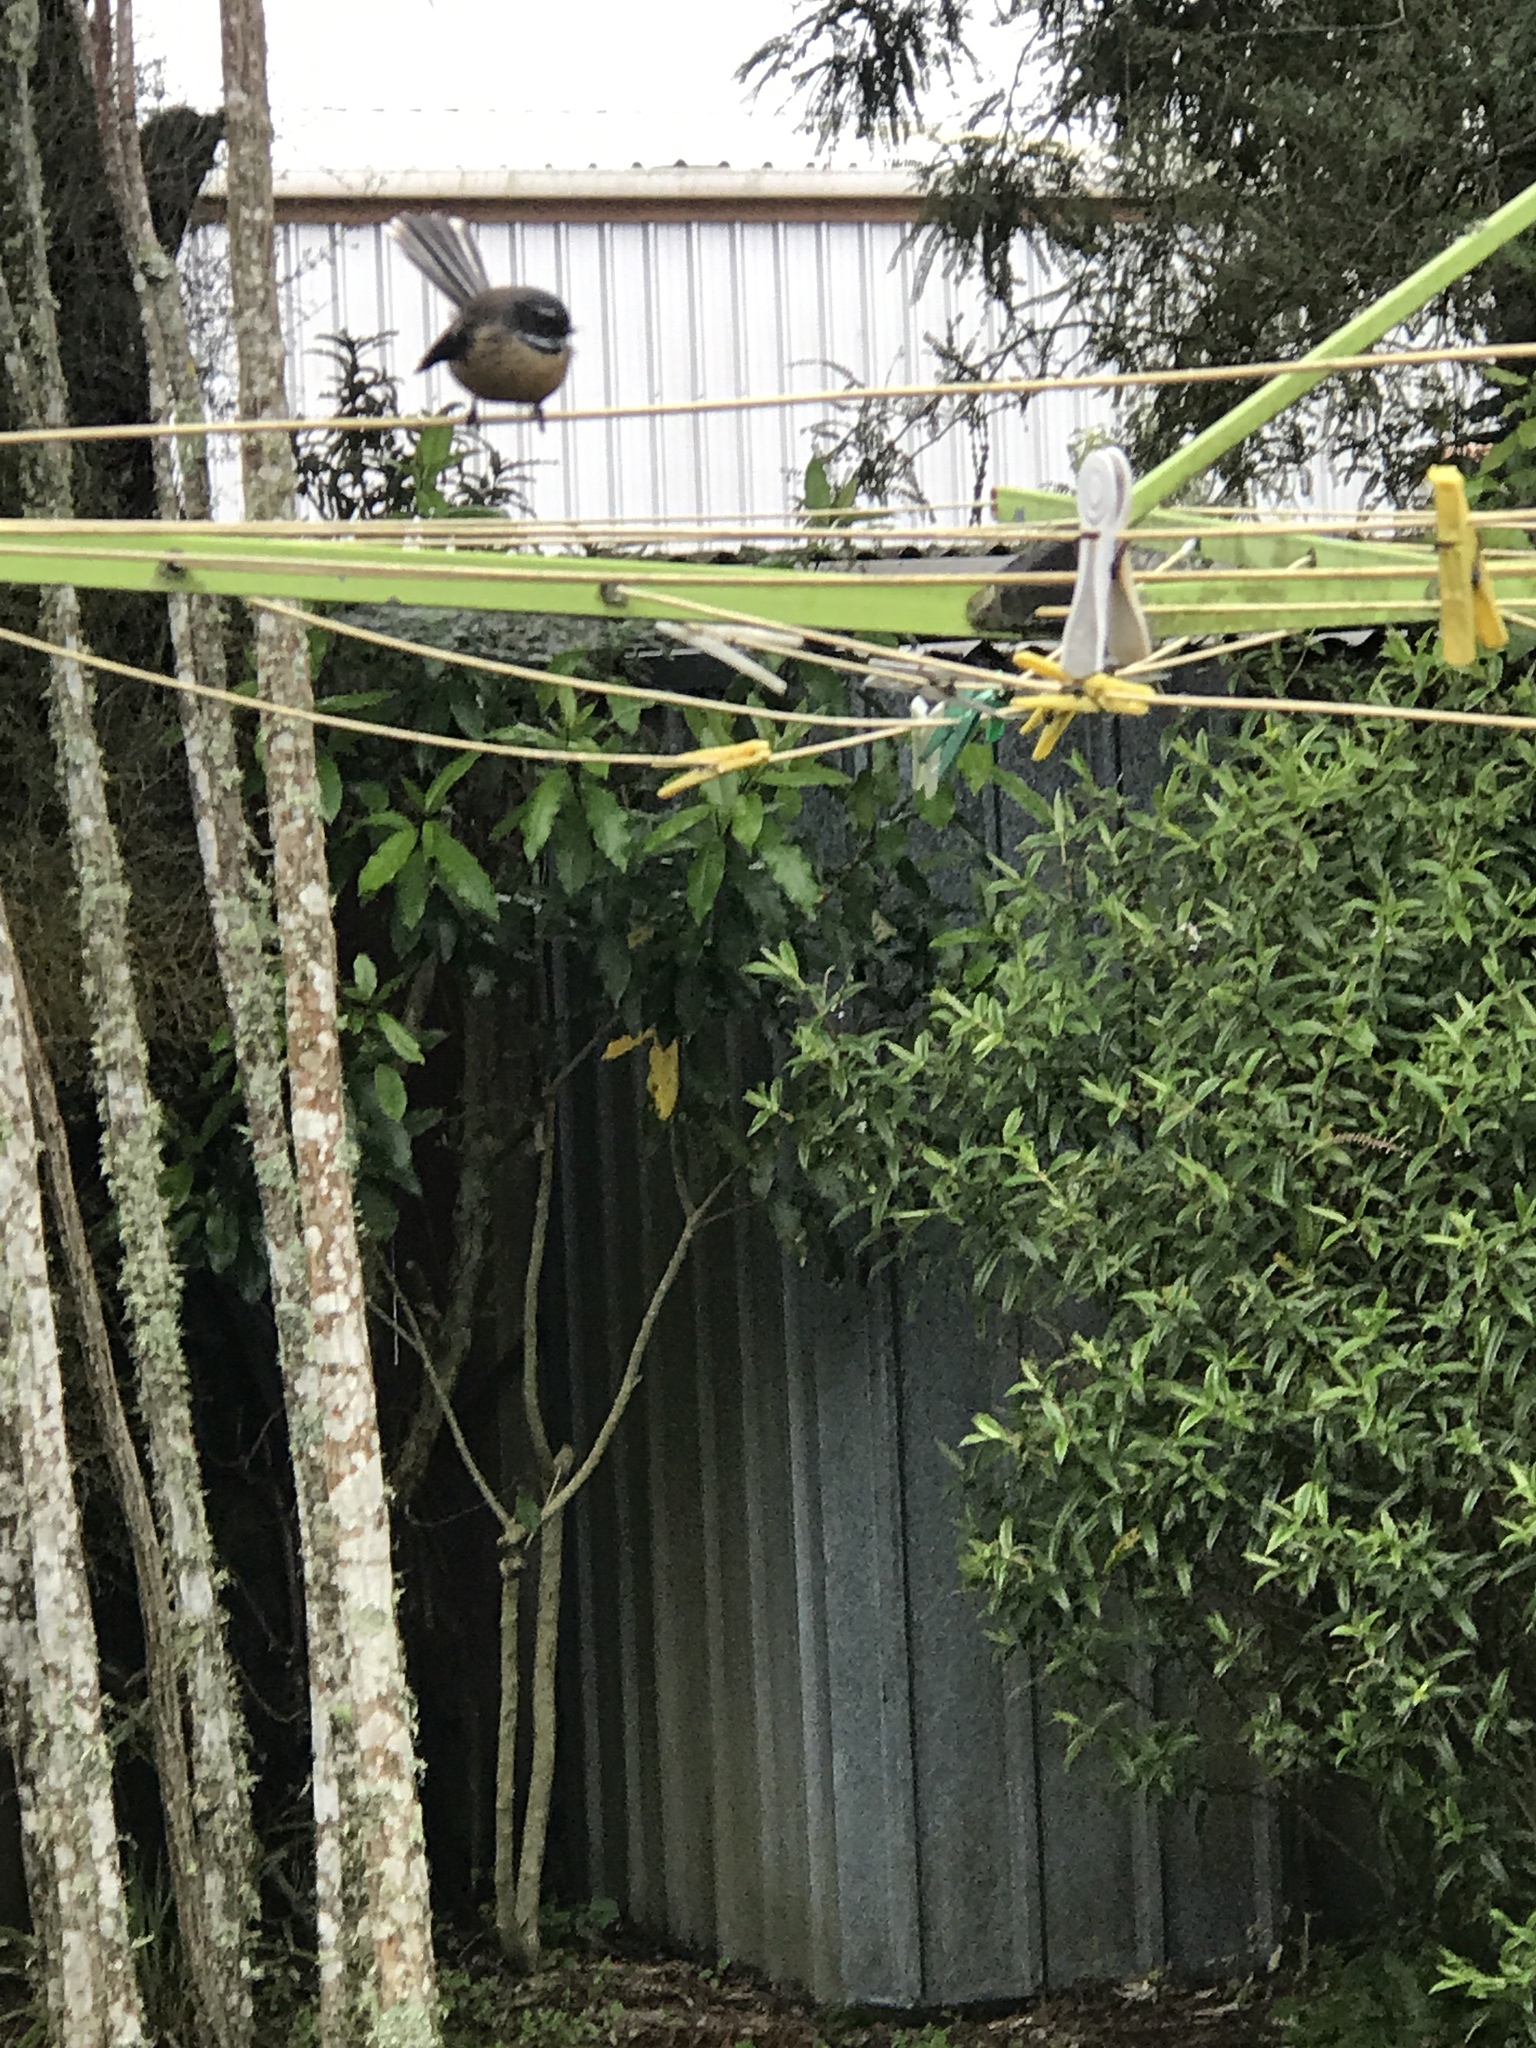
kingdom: Animalia
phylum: Chordata
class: Aves
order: Passeriformes
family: Rhipiduridae
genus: Rhipidura
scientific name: Rhipidura fuliginosa
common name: New zealand fantail
